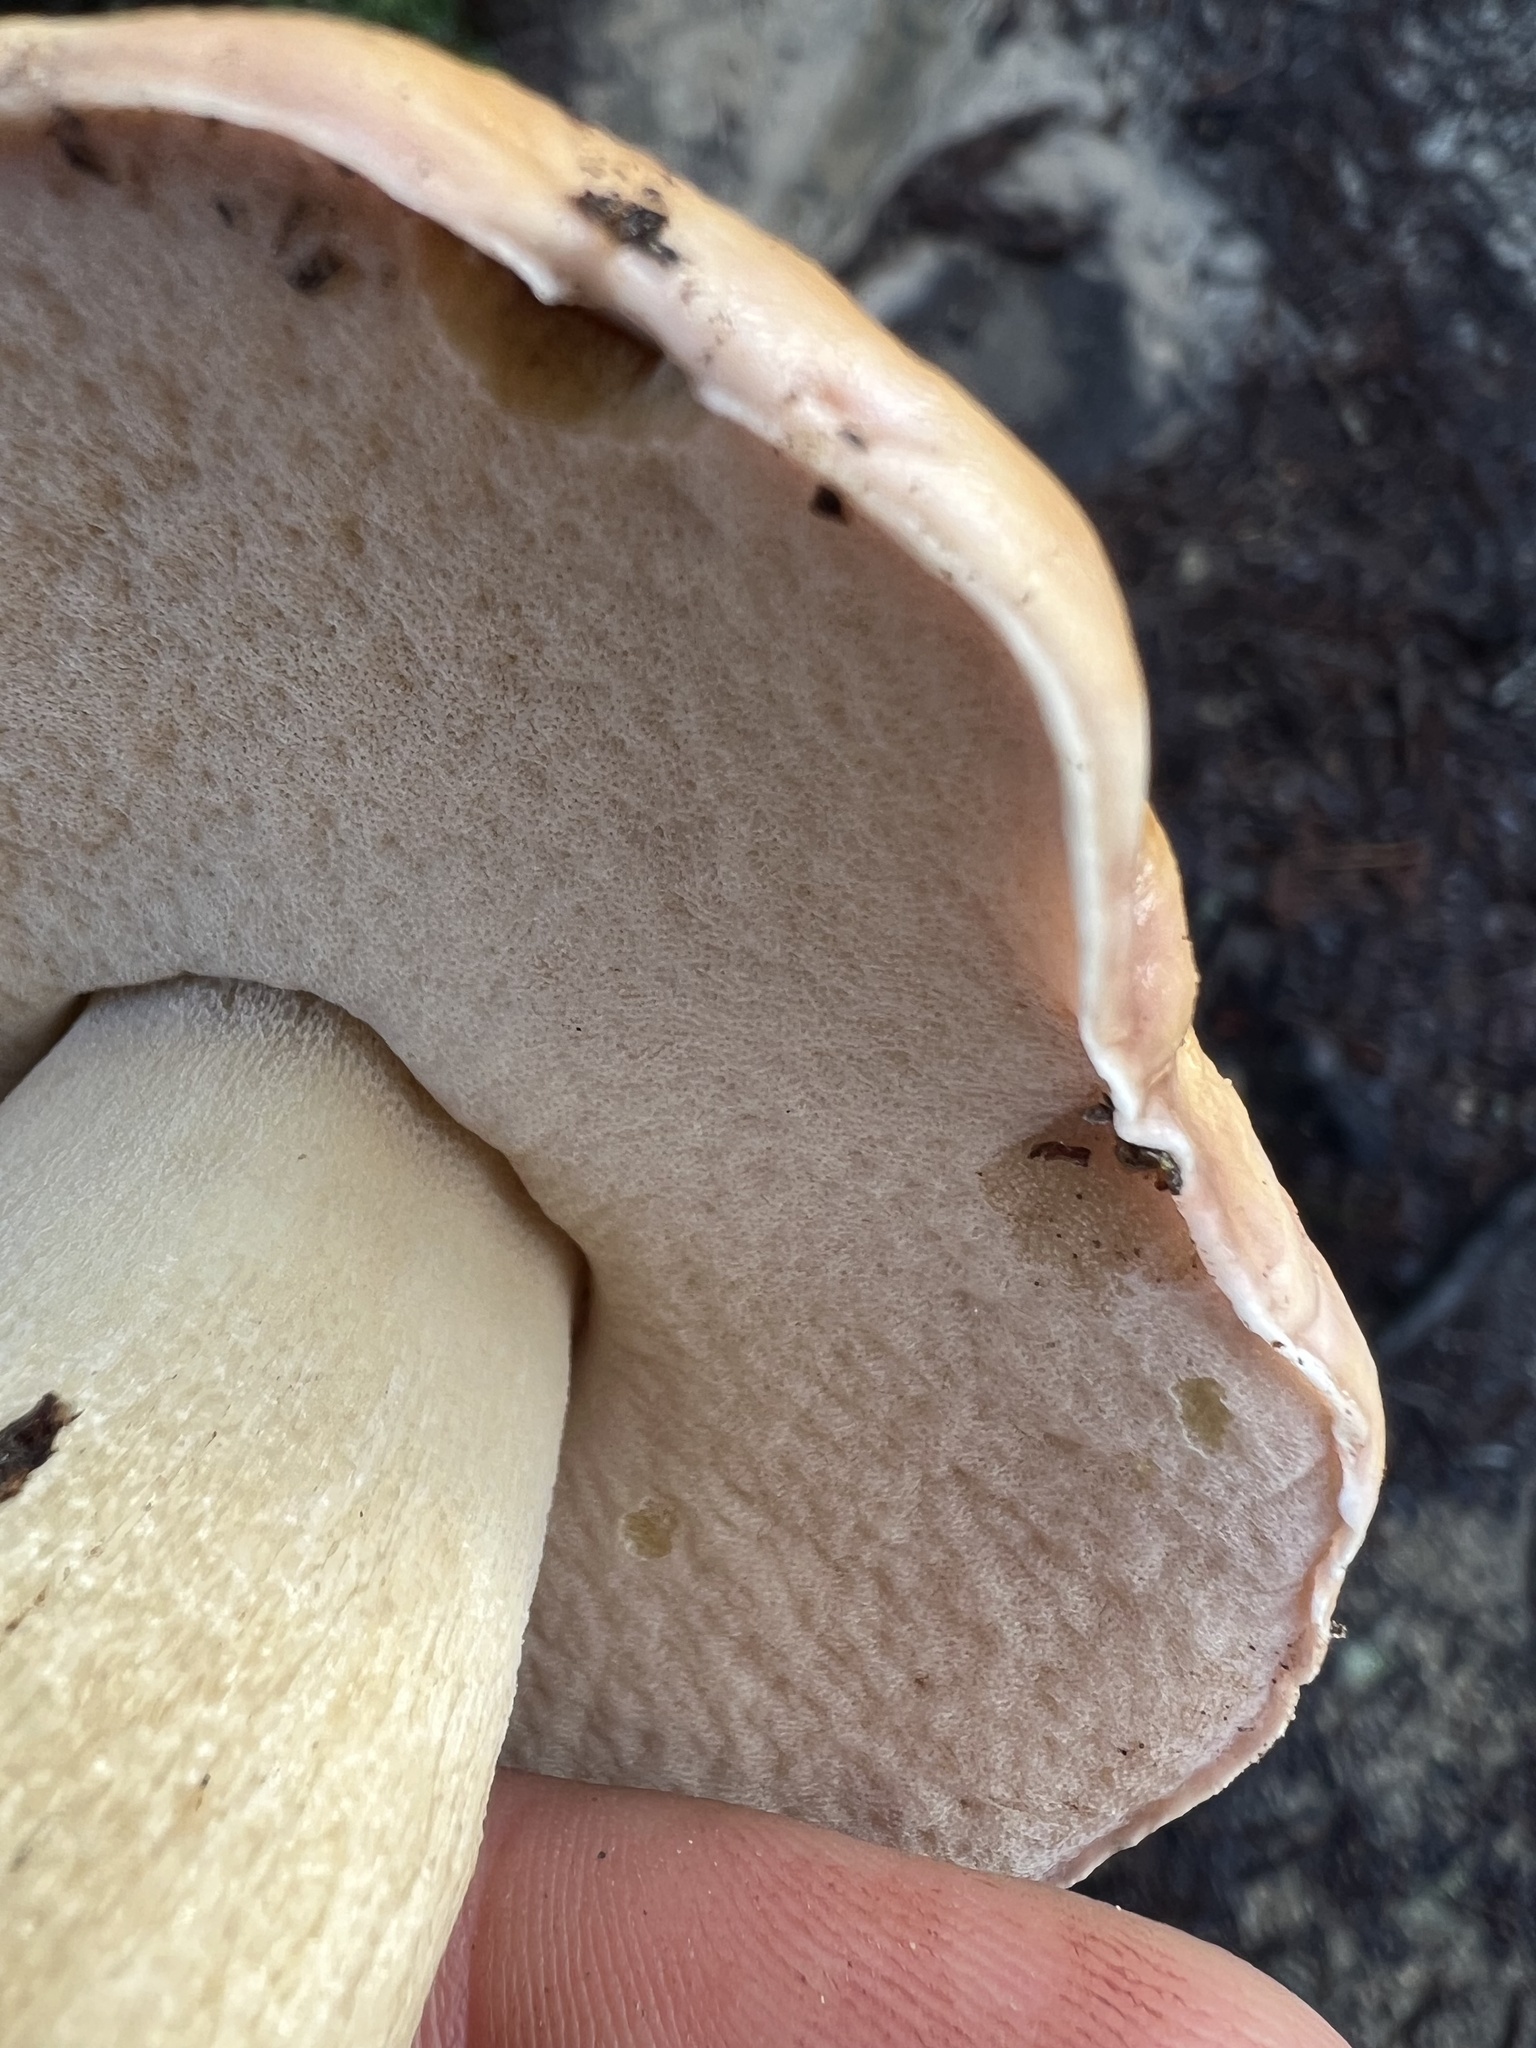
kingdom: Fungi
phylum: Basidiomycota
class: Agaricomycetes
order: Boletales
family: Boletaceae
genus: Boletus
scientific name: Boletus edulis
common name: Cep
